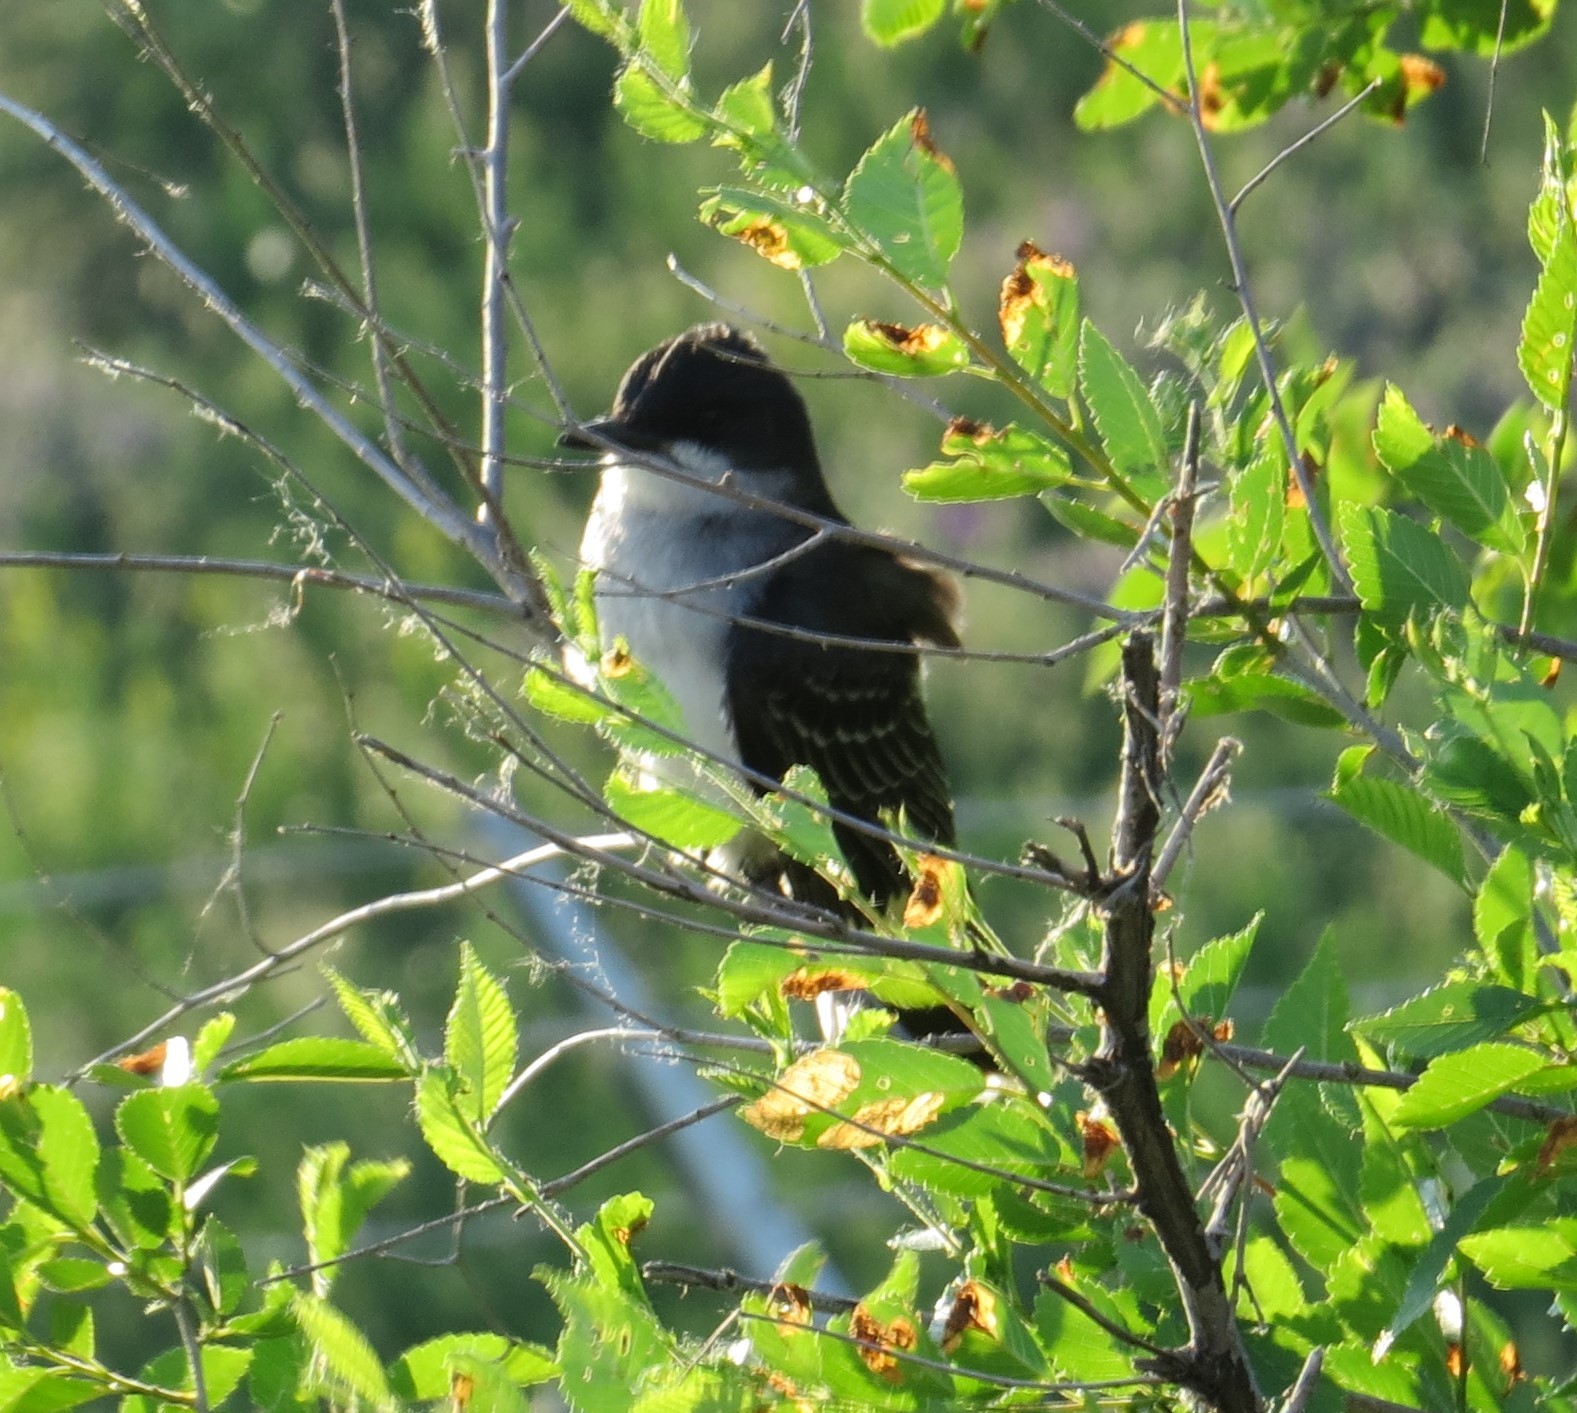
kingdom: Animalia
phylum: Chordata
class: Aves
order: Passeriformes
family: Tyrannidae
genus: Tyrannus
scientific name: Tyrannus tyrannus
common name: Eastern kingbird
